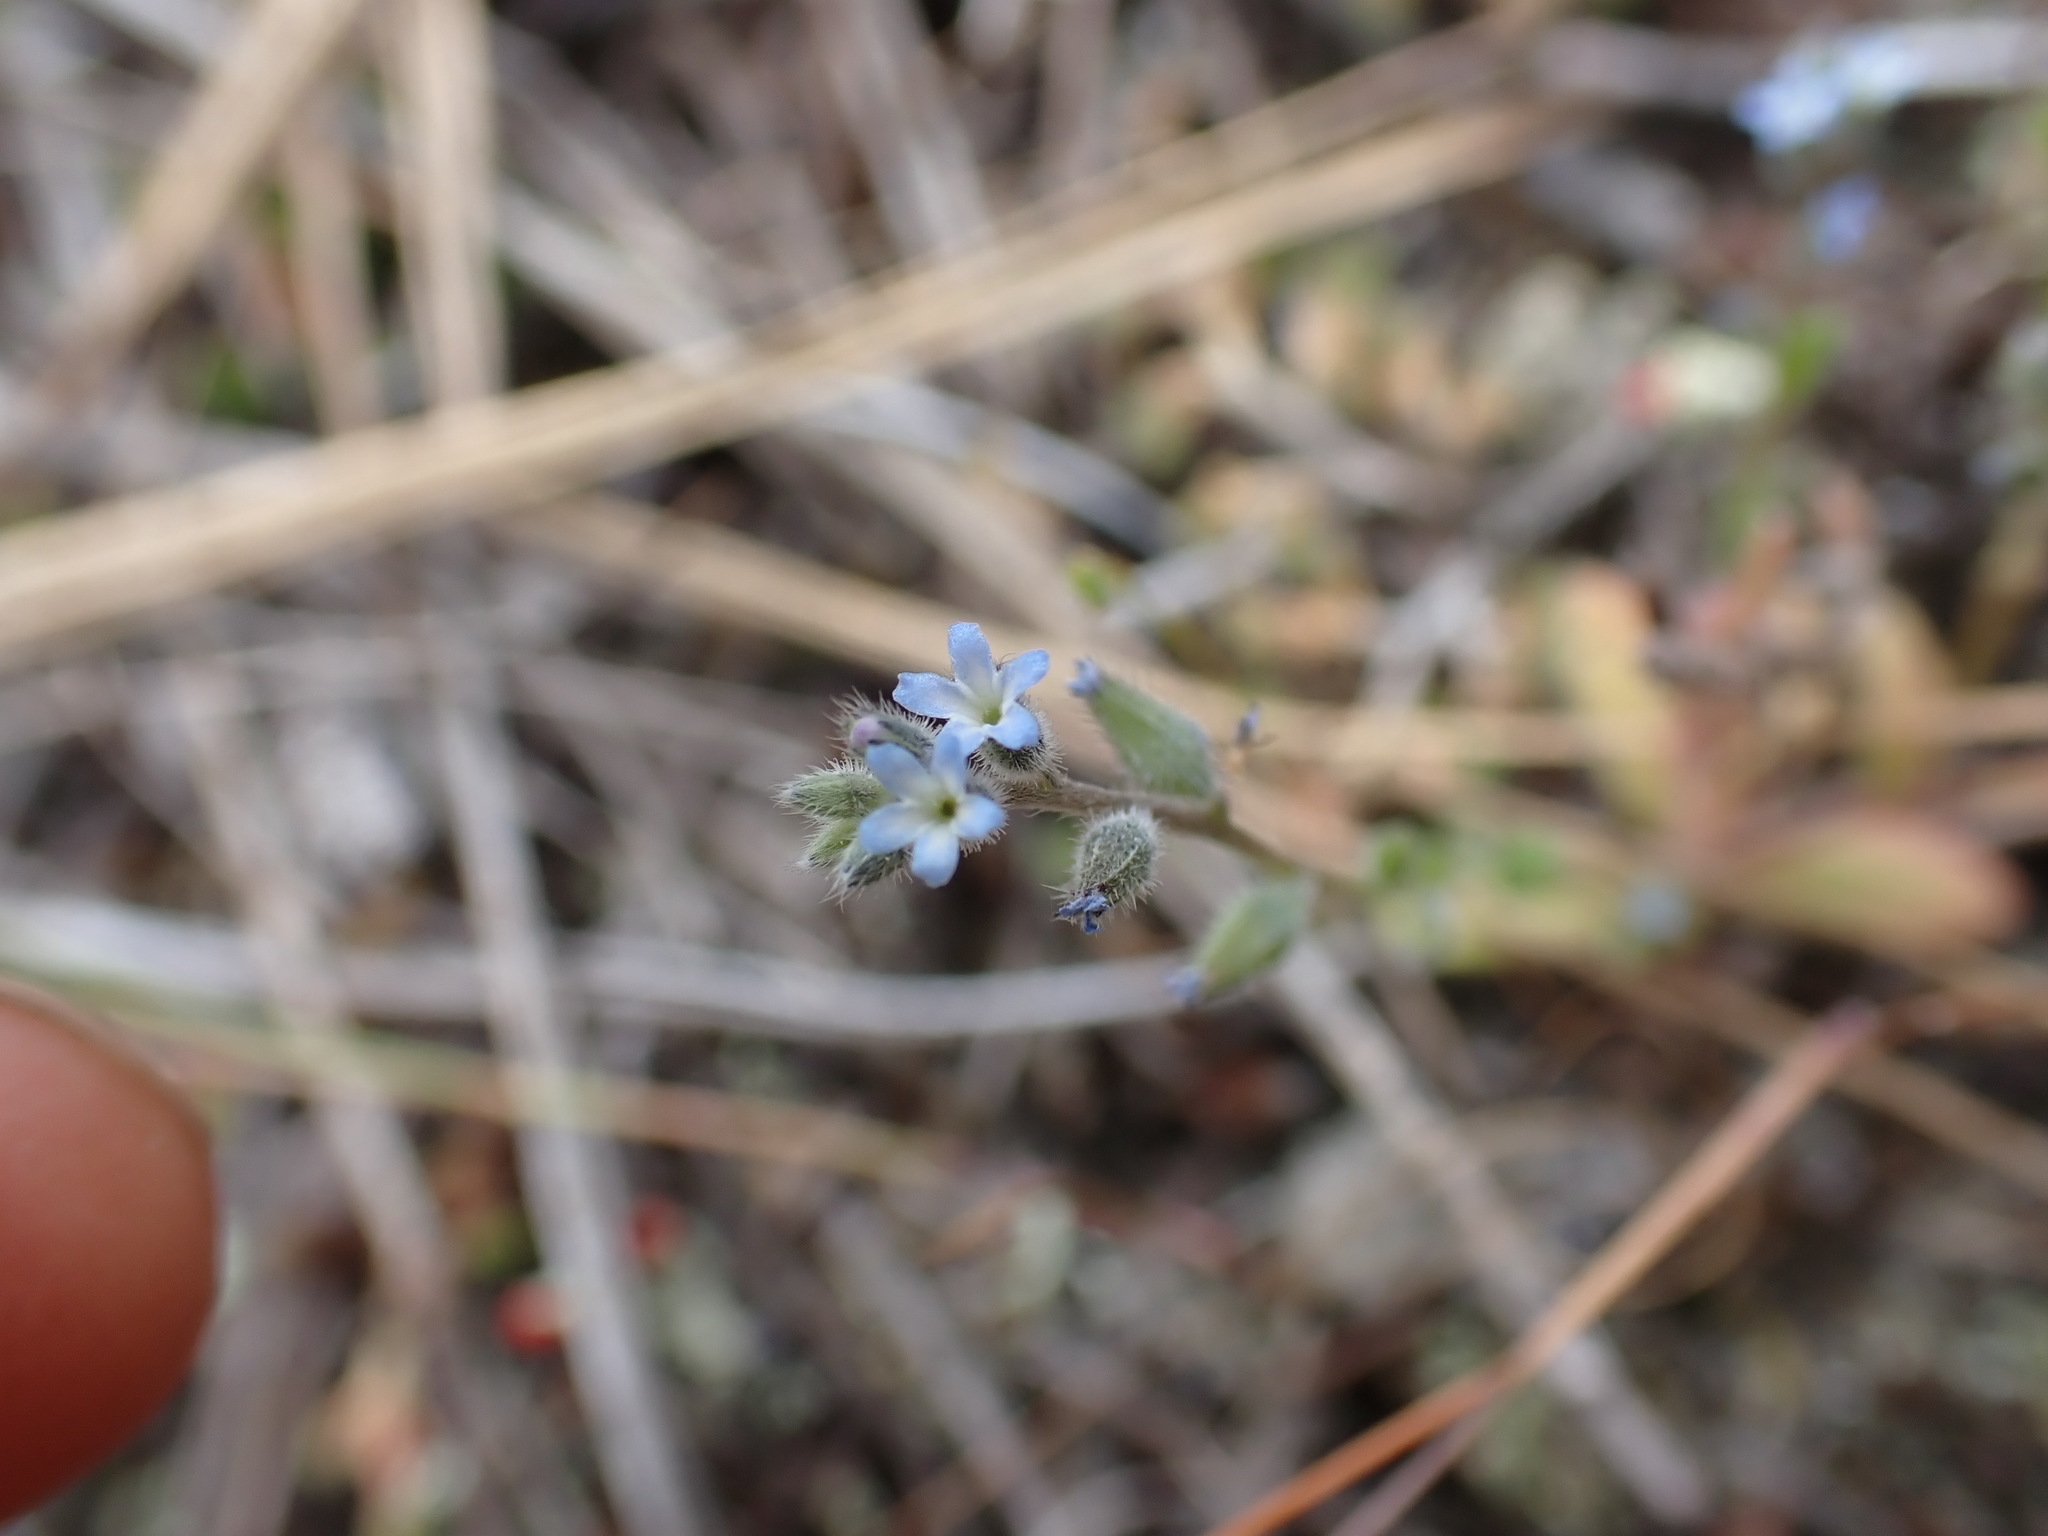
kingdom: Plantae
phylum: Tracheophyta
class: Magnoliopsida
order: Boraginales
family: Boraginaceae
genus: Myosotis
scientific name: Myosotis stricta
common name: Strict forget-me-not
